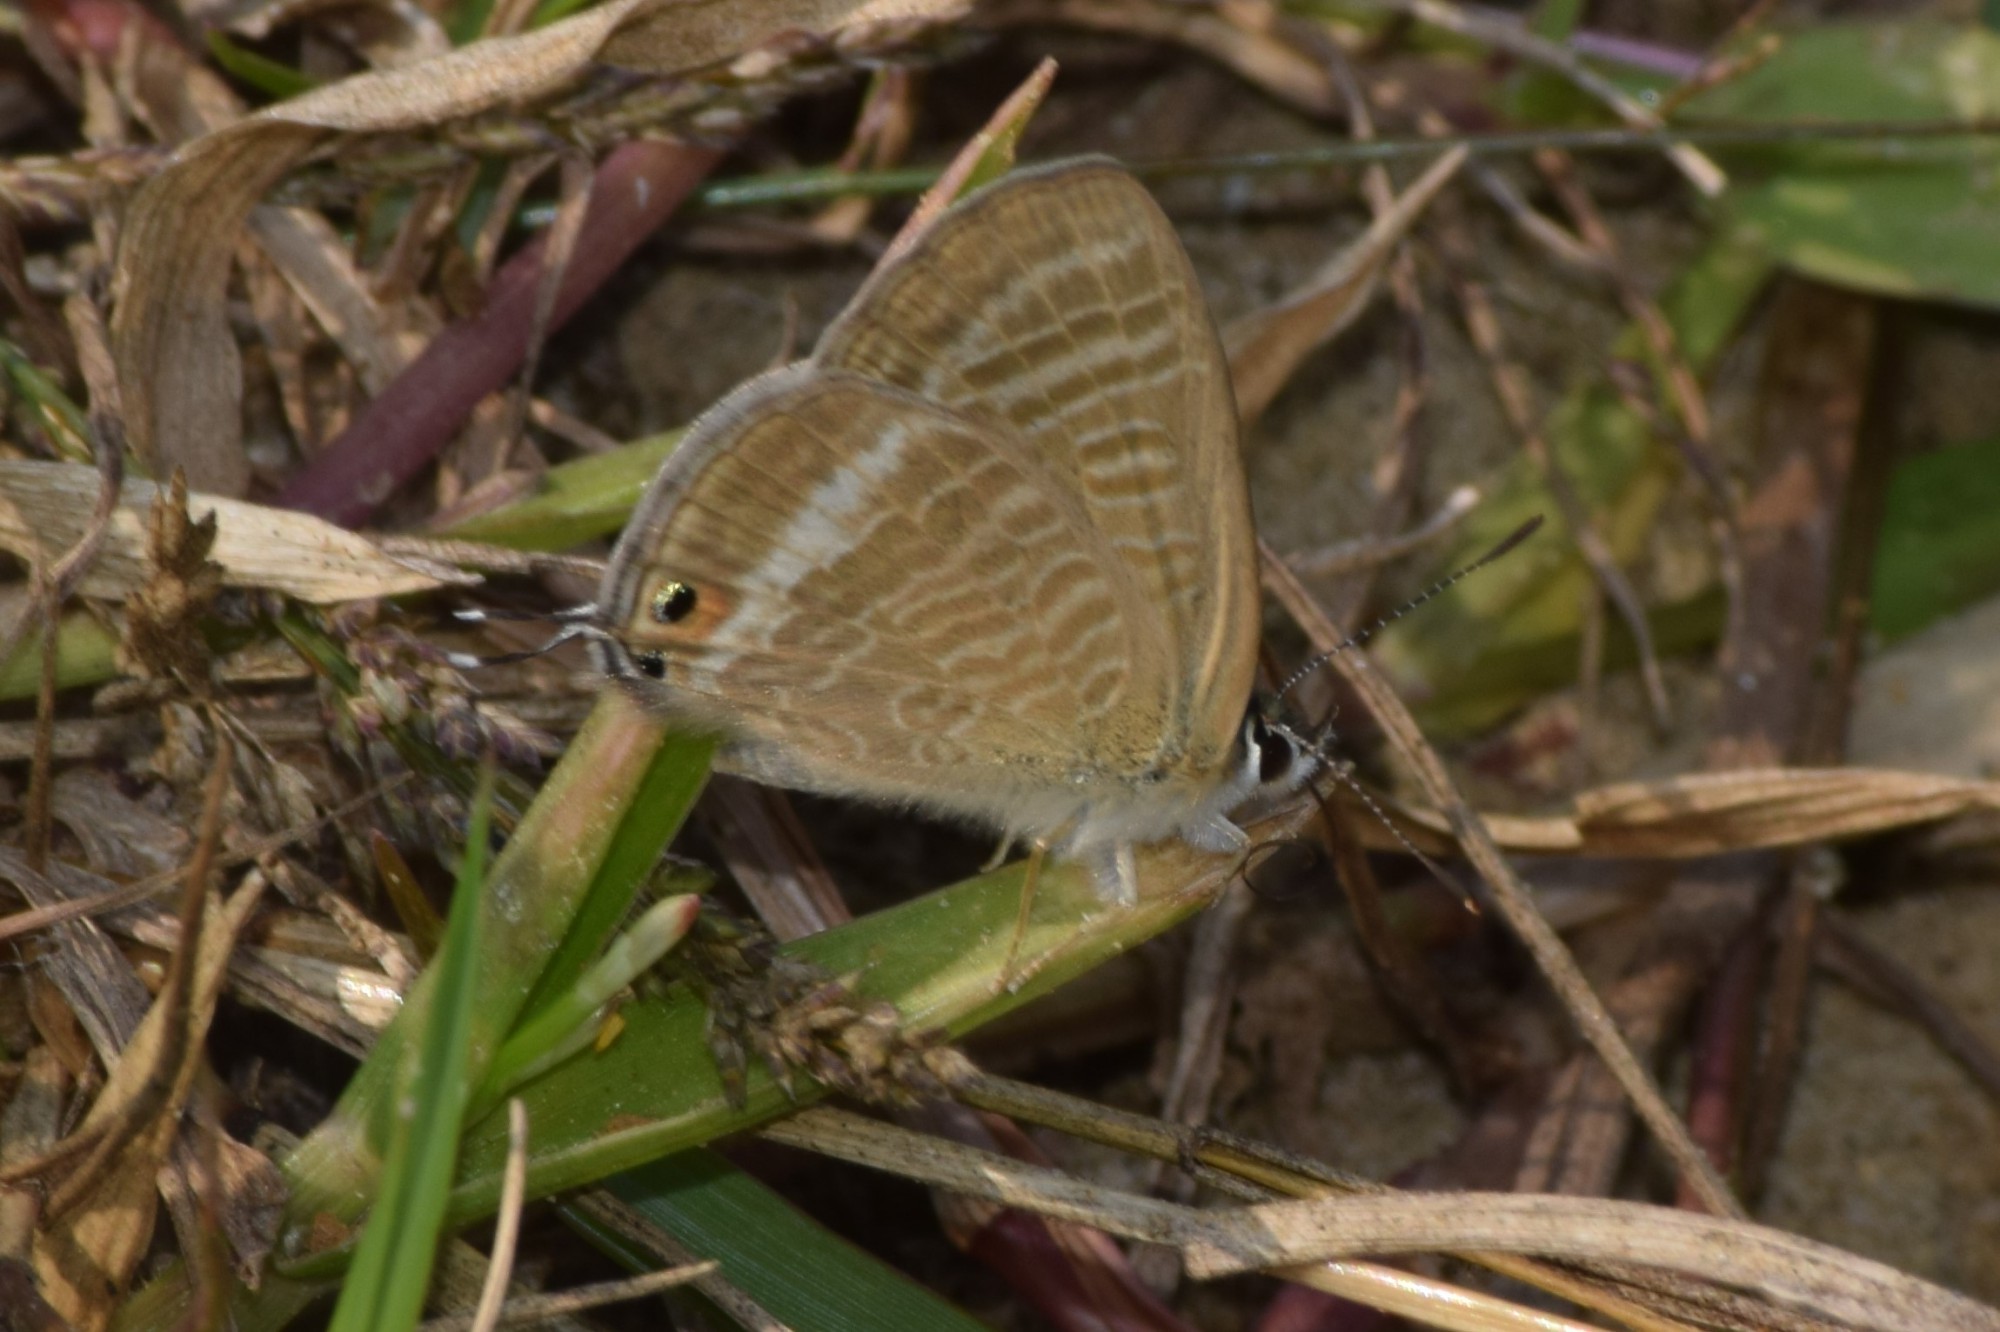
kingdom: Animalia
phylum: Arthropoda
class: Insecta
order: Lepidoptera
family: Lycaenidae
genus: Lampides
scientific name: Lampides boeticus
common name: Long-tailed blue
